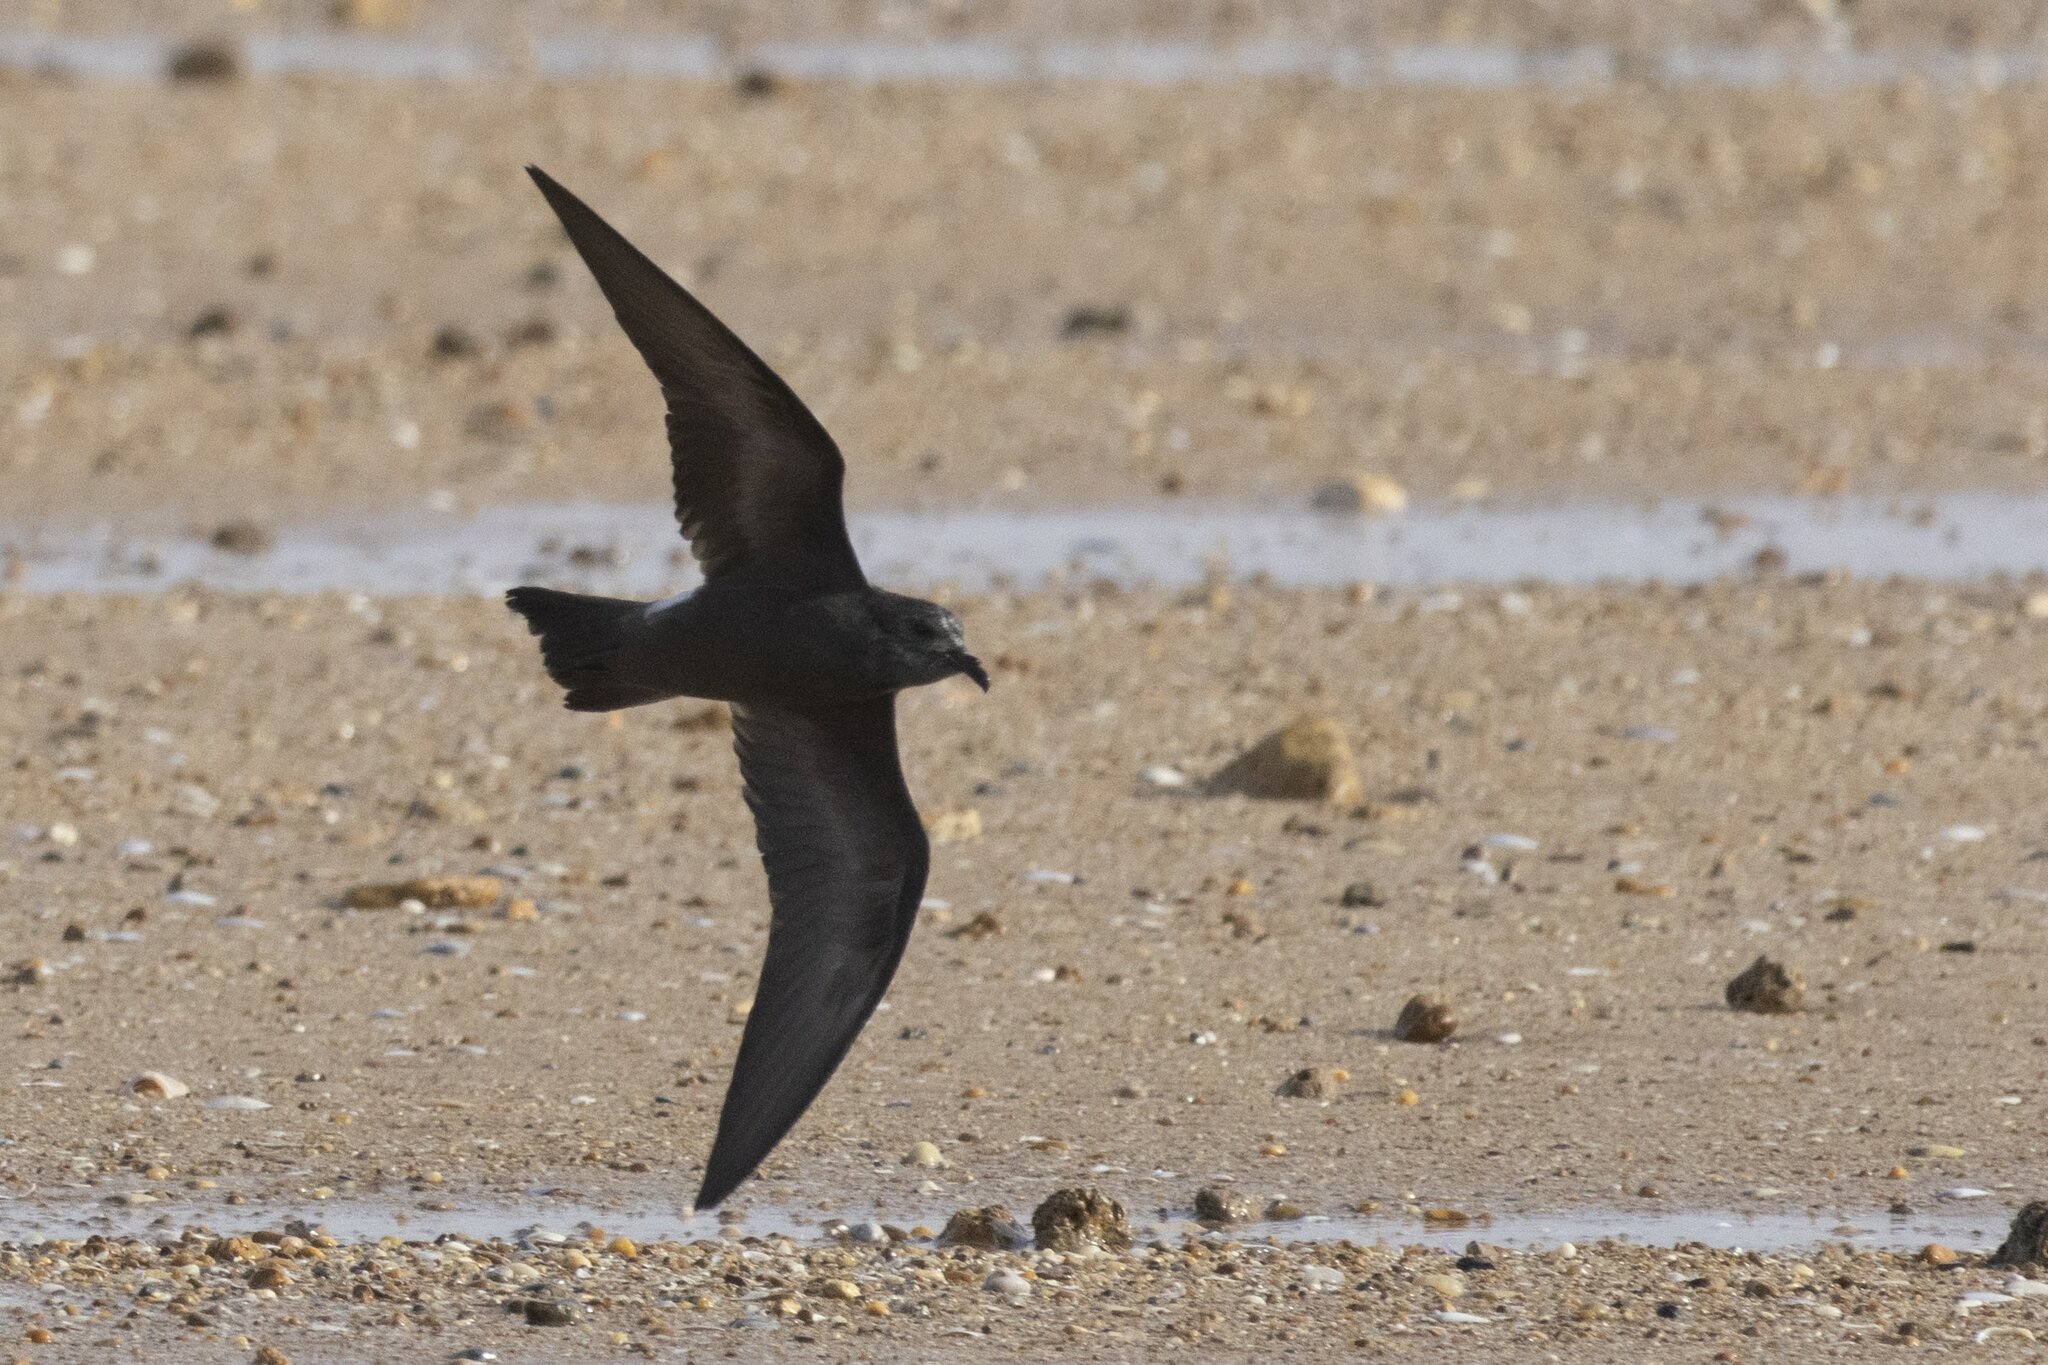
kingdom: Animalia
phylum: Chordata
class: Aves
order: Procellariiformes
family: Hydrobatidae
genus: Oceanodroma
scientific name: Oceanodroma leucorhoa
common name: Leach's storm-petrel
